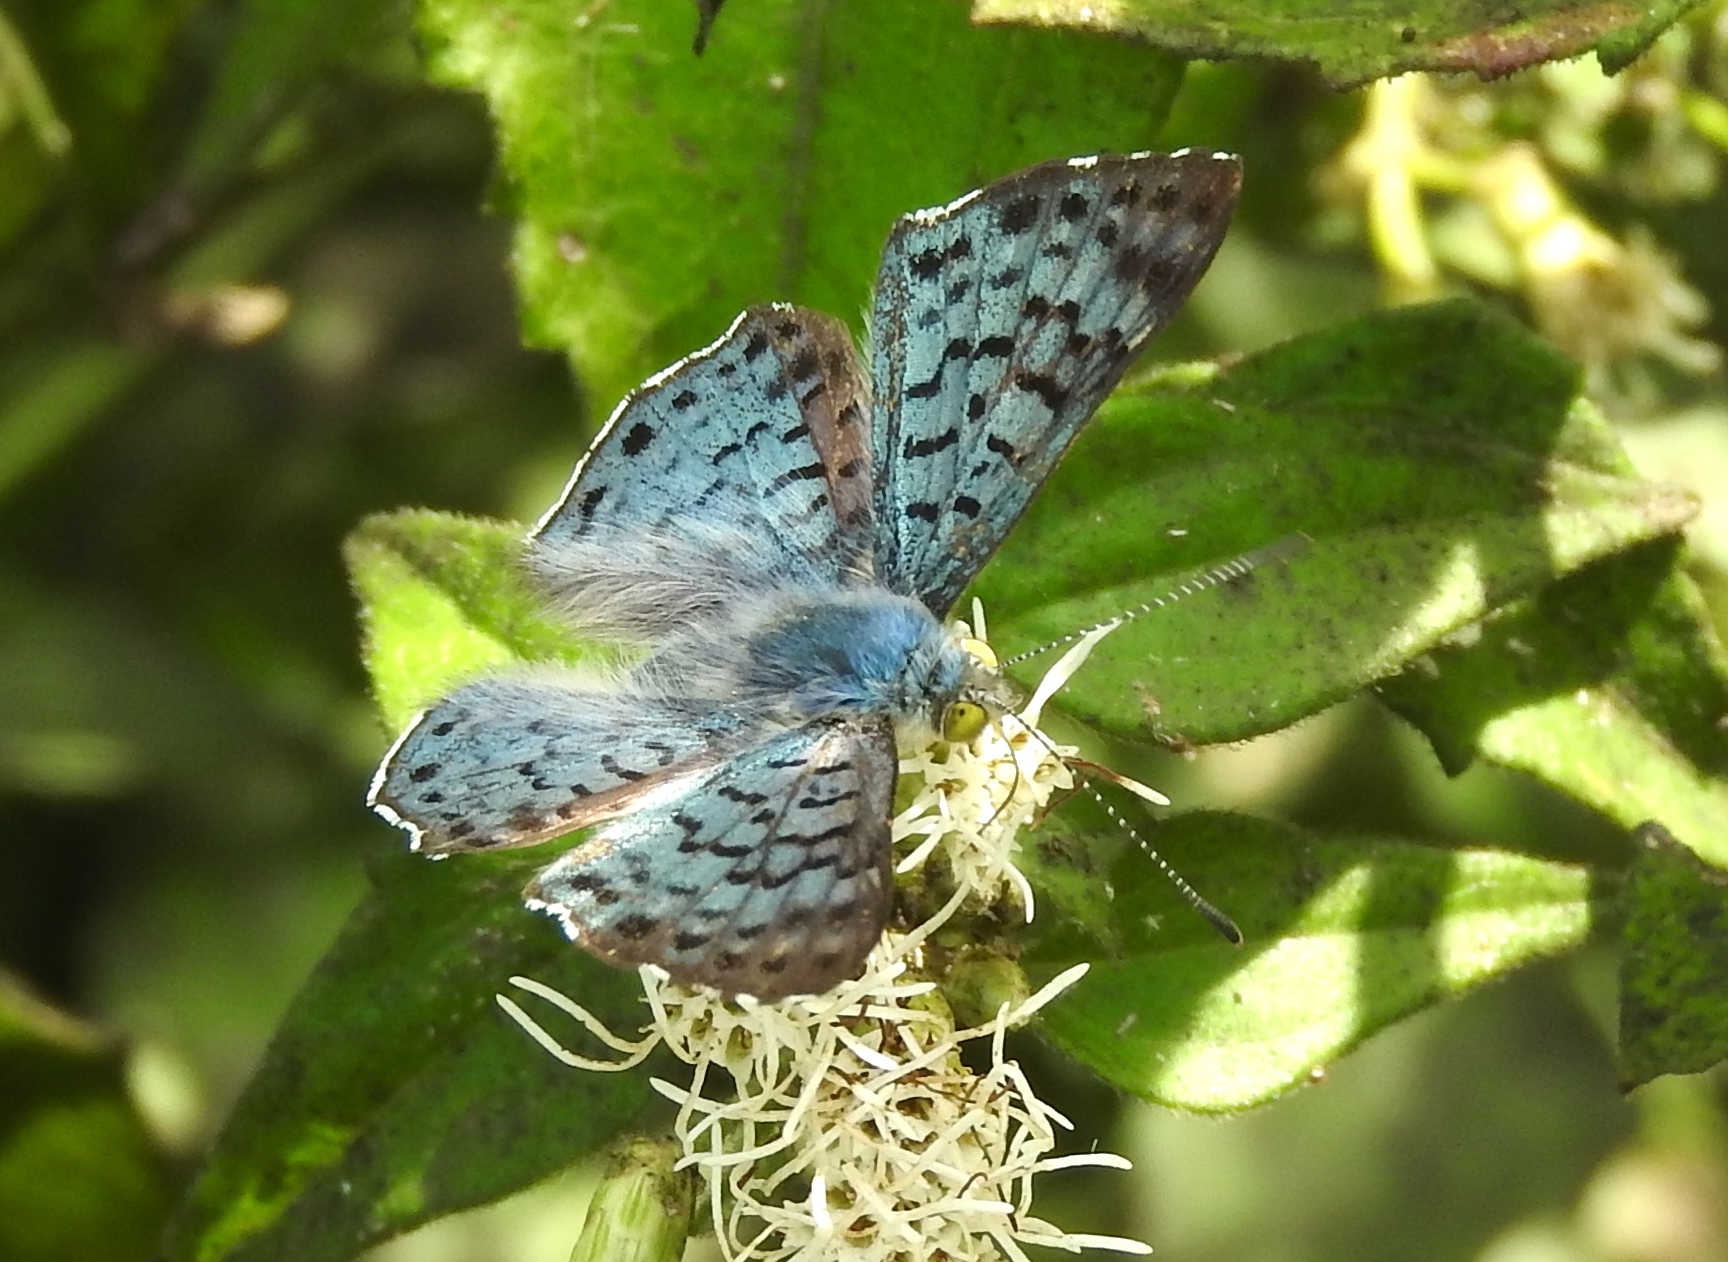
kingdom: Animalia
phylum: Arthropoda
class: Insecta
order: Lepidoptera
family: Riodinidae
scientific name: Riodinidae
